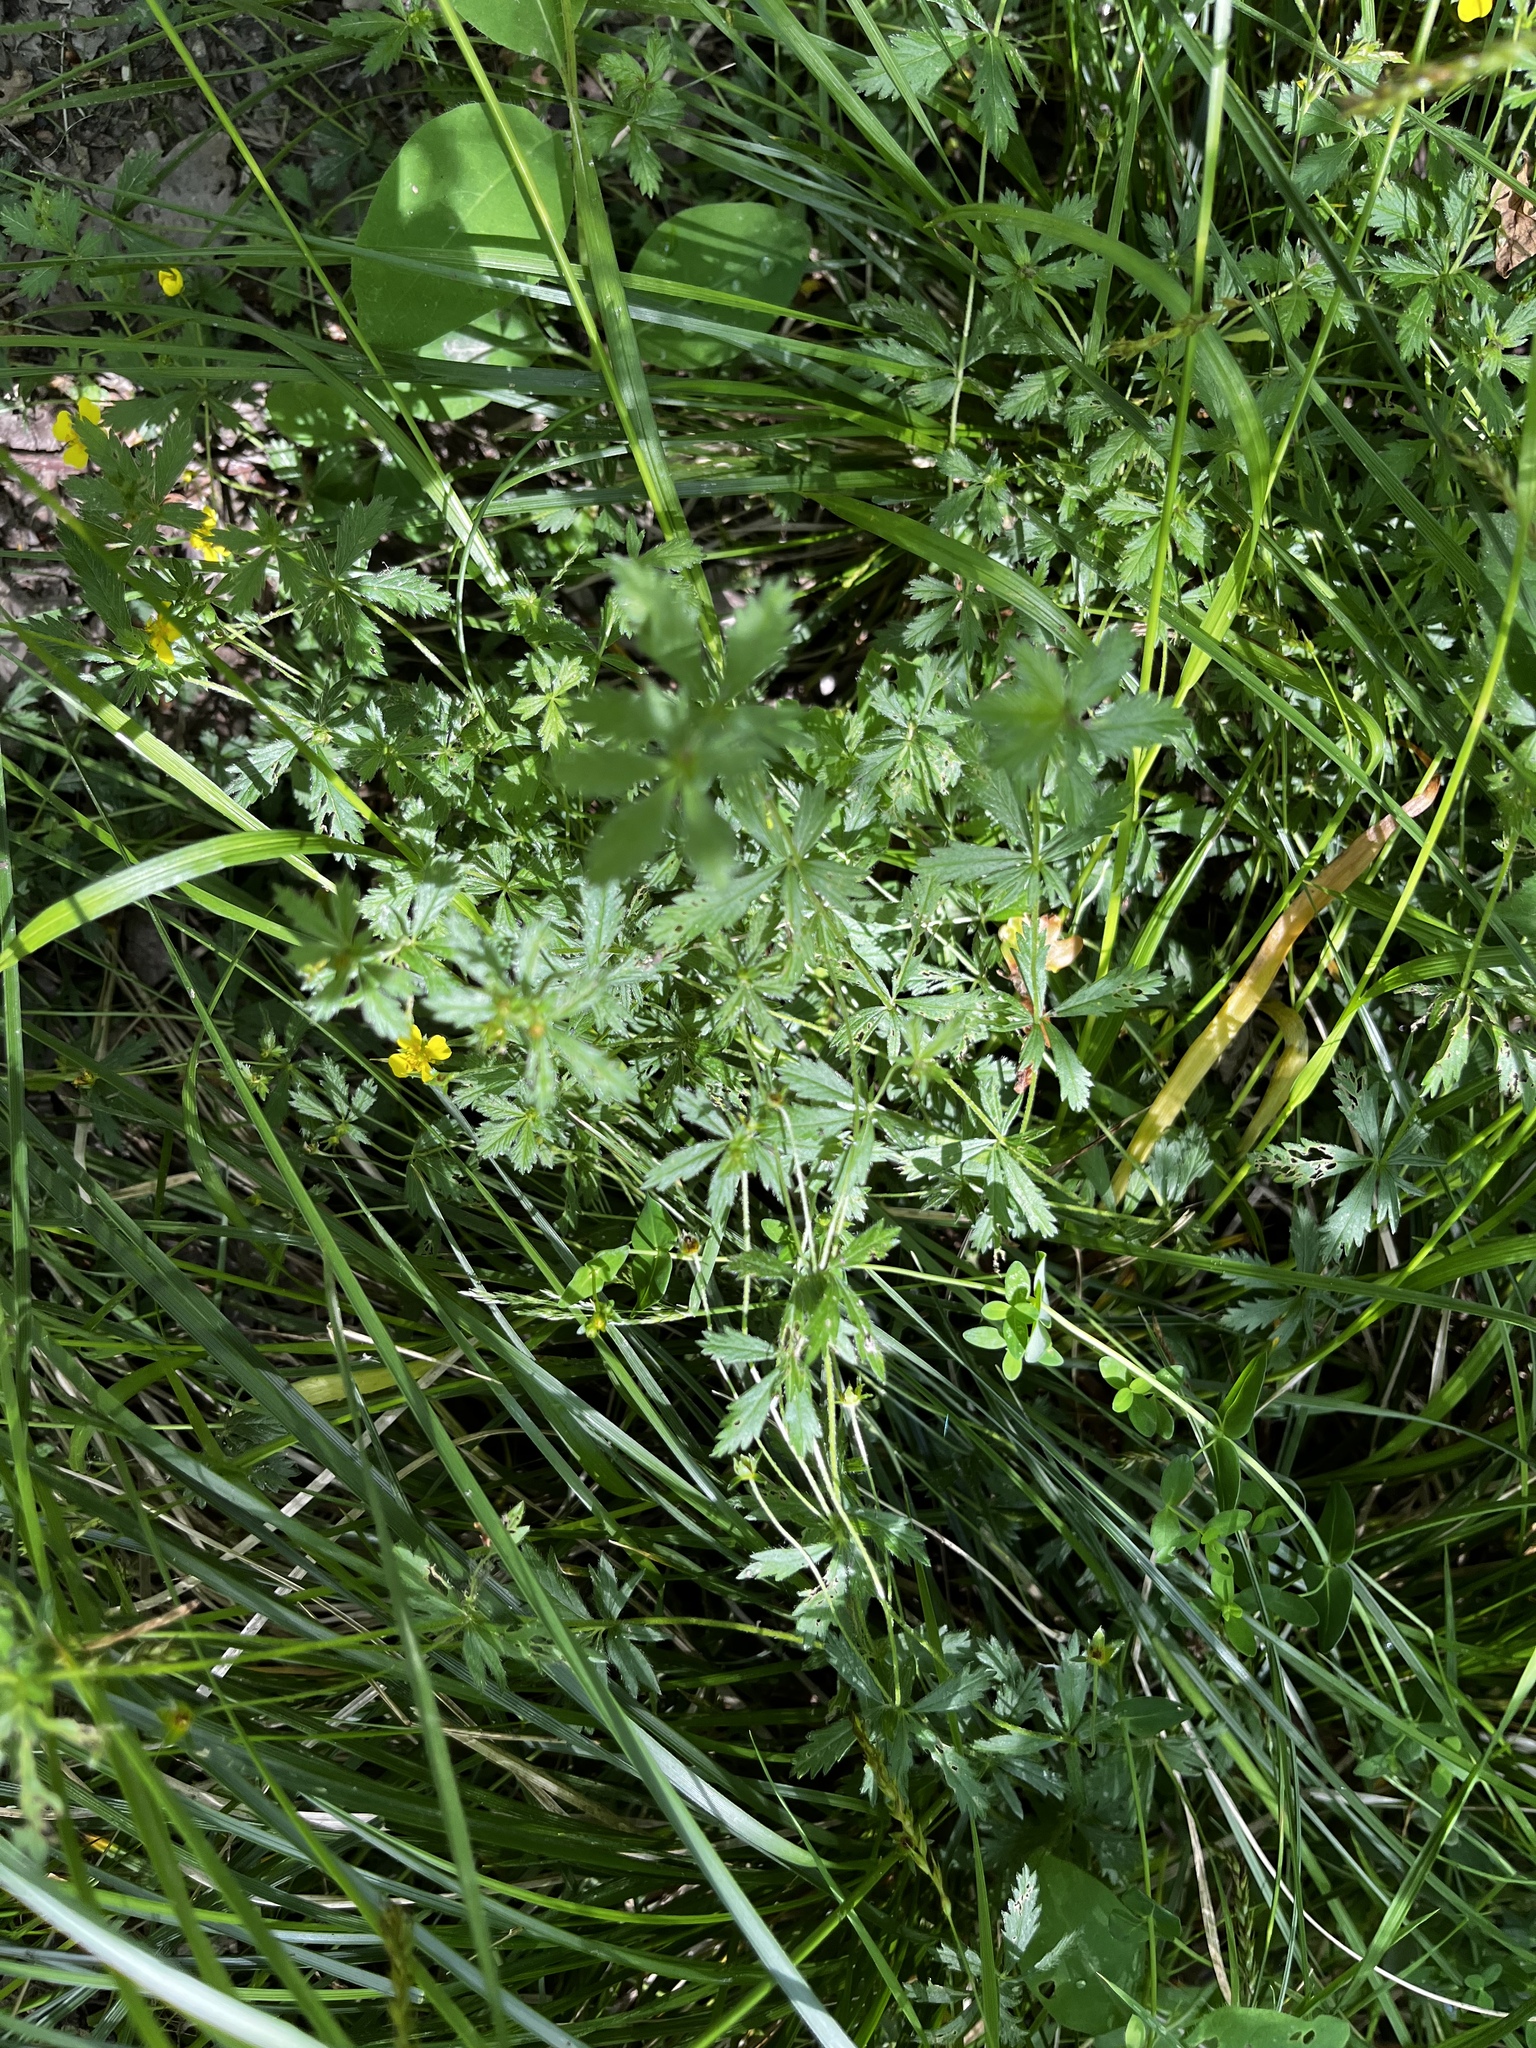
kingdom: Plantae
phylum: Tracheophyta
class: Magnoliopsida
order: Rosales
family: Rosaceae
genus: Potentilla
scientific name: Potentilla erecta
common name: Tormentil
